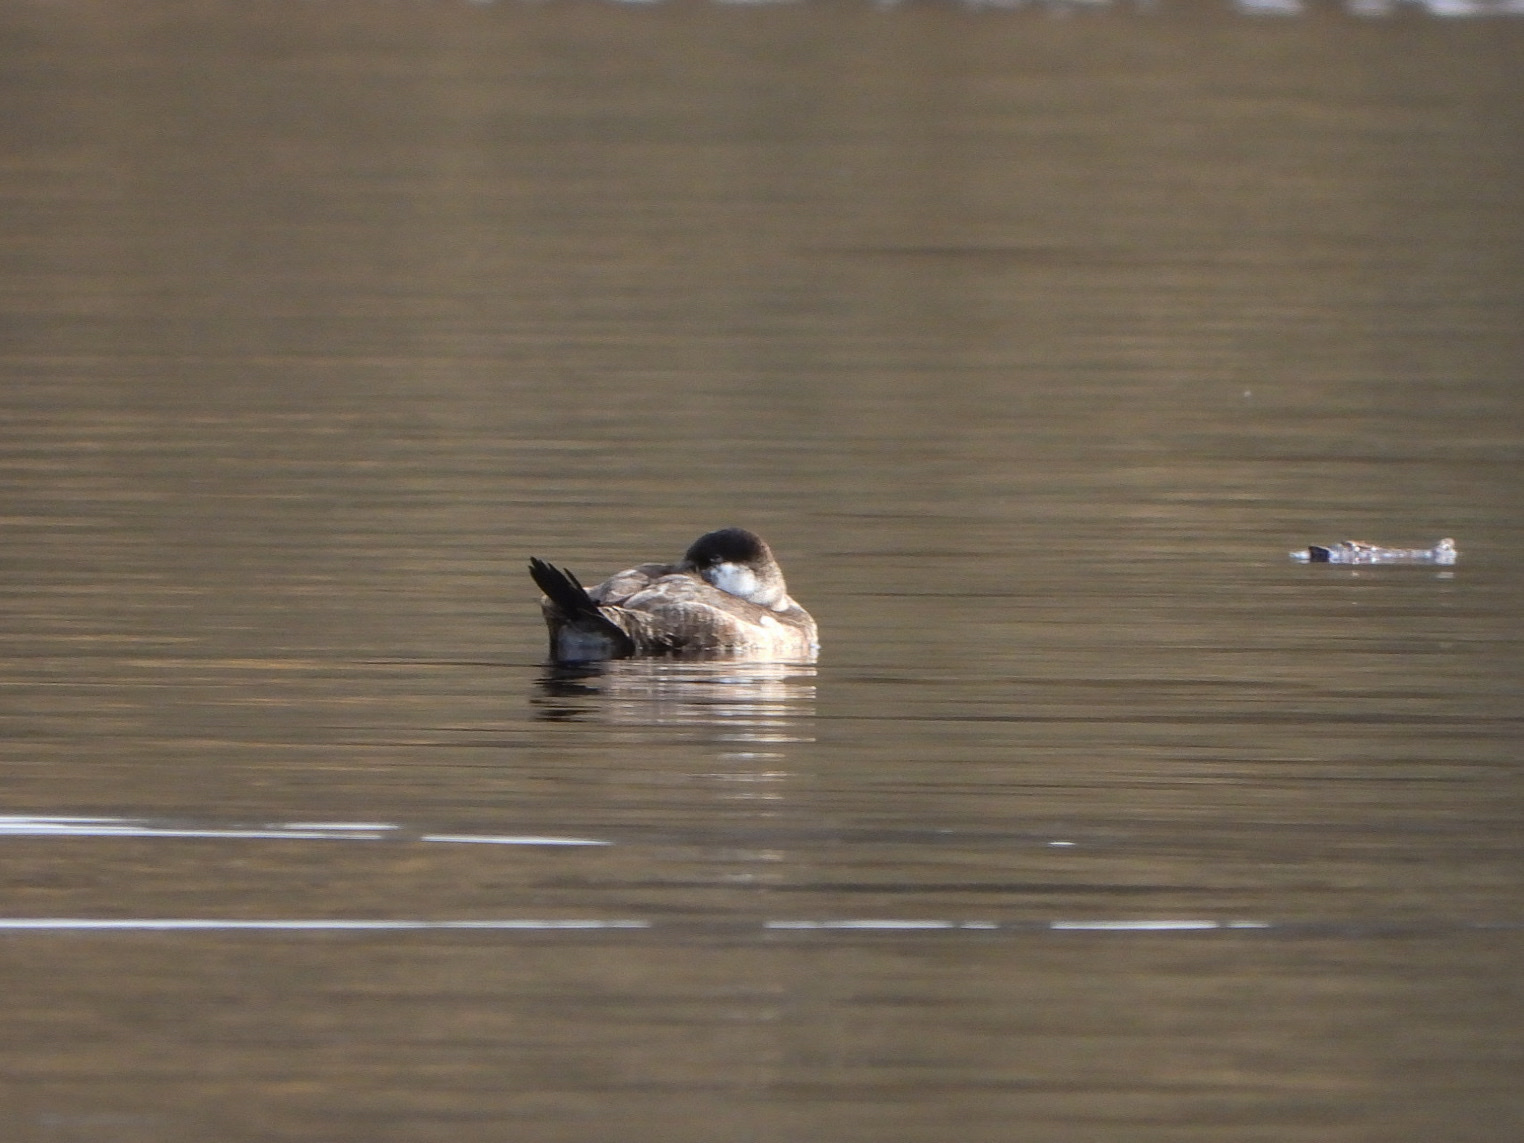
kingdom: Animalia
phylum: Chordata
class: Aves
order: Anseriformes
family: Anatidae
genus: Oxyura
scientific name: Oxyura jamaicensis
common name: Ruddy duck
